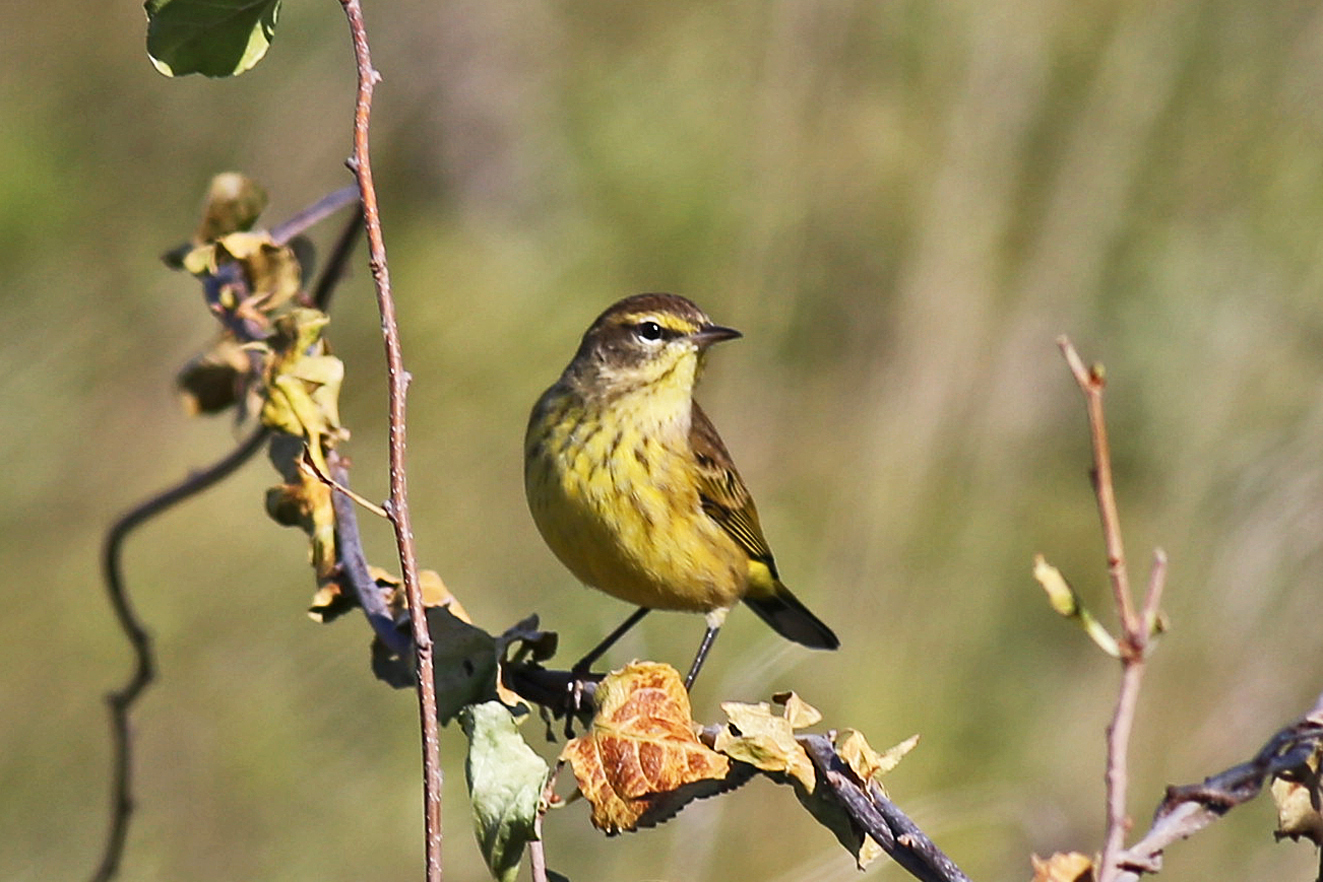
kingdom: Animalia
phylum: Chordata
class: Aves
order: Passeriformes
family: Parulidae
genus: Setophaga
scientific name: Setophaga palmarum
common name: Palm warbler
